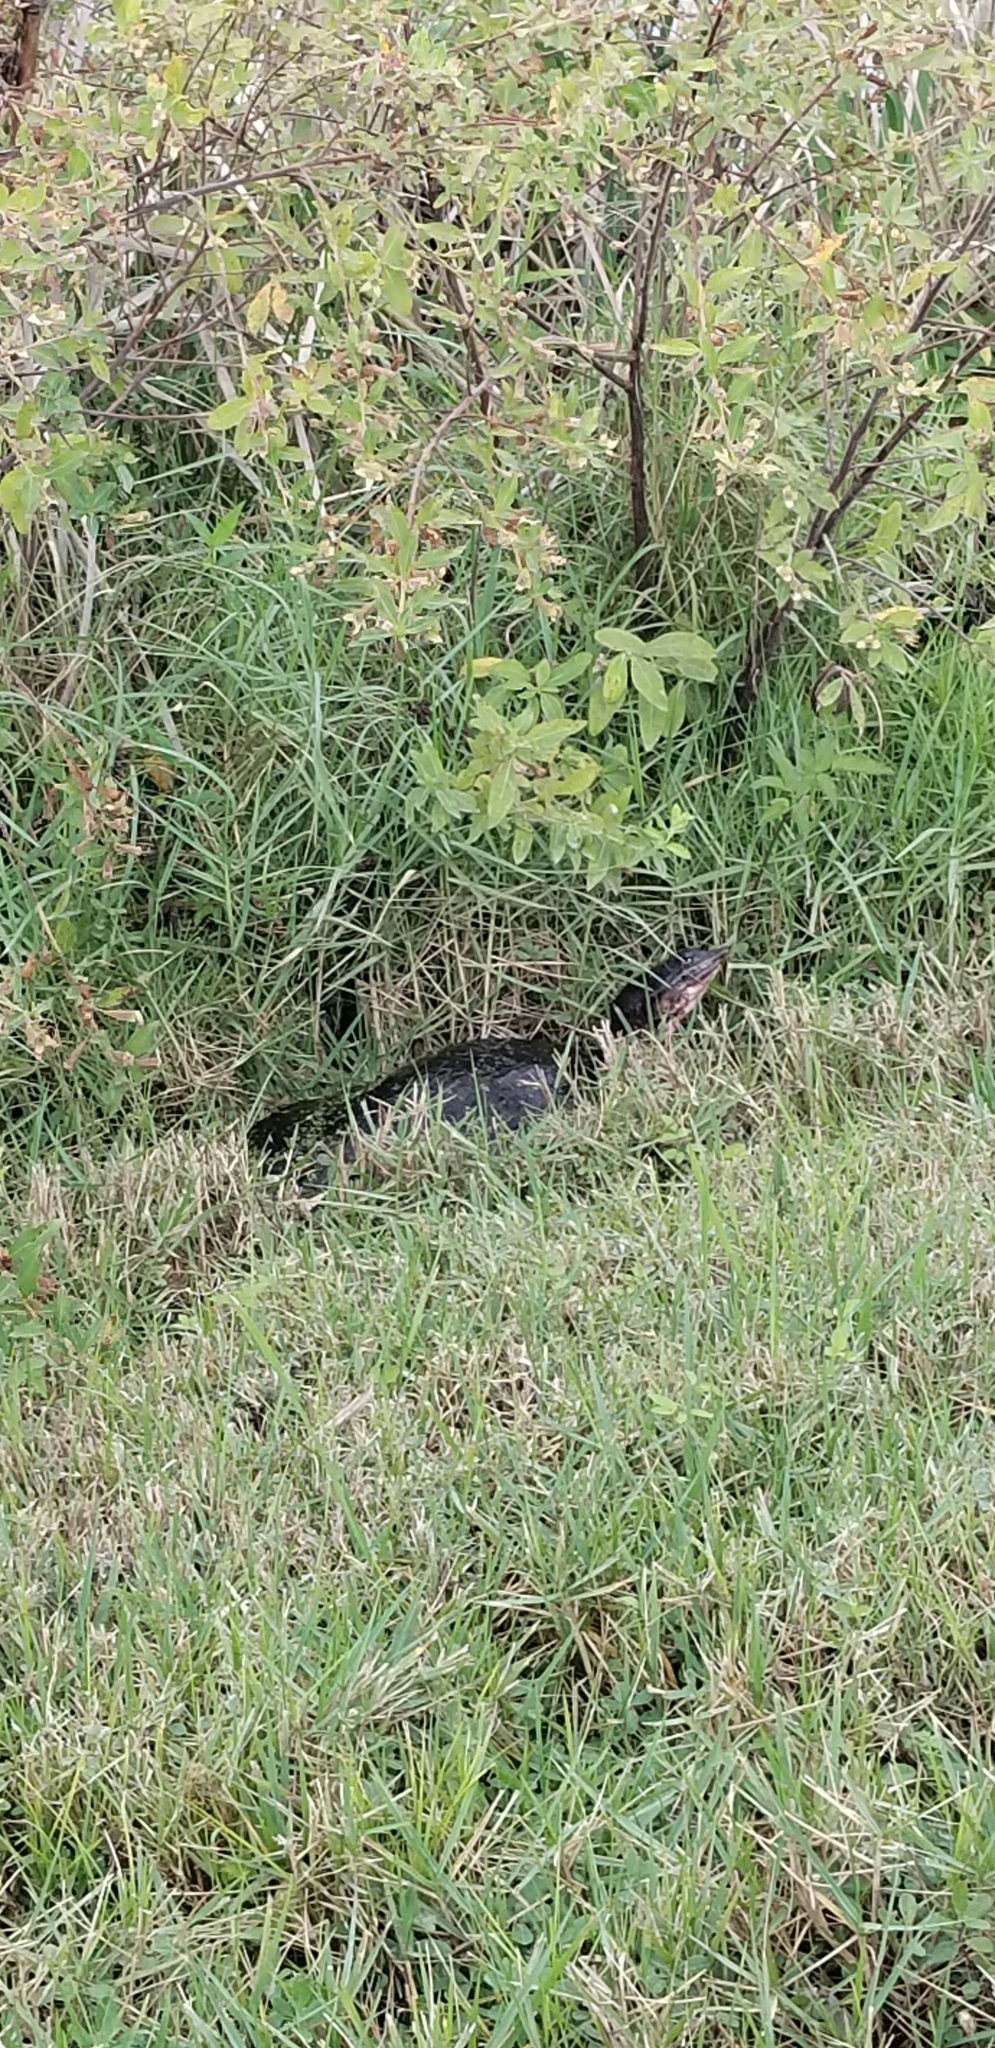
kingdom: Animalia
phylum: Chordata
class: Testudines
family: Trionychidae
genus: Apalone
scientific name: Apalone ferox
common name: Florida softshell turtle
